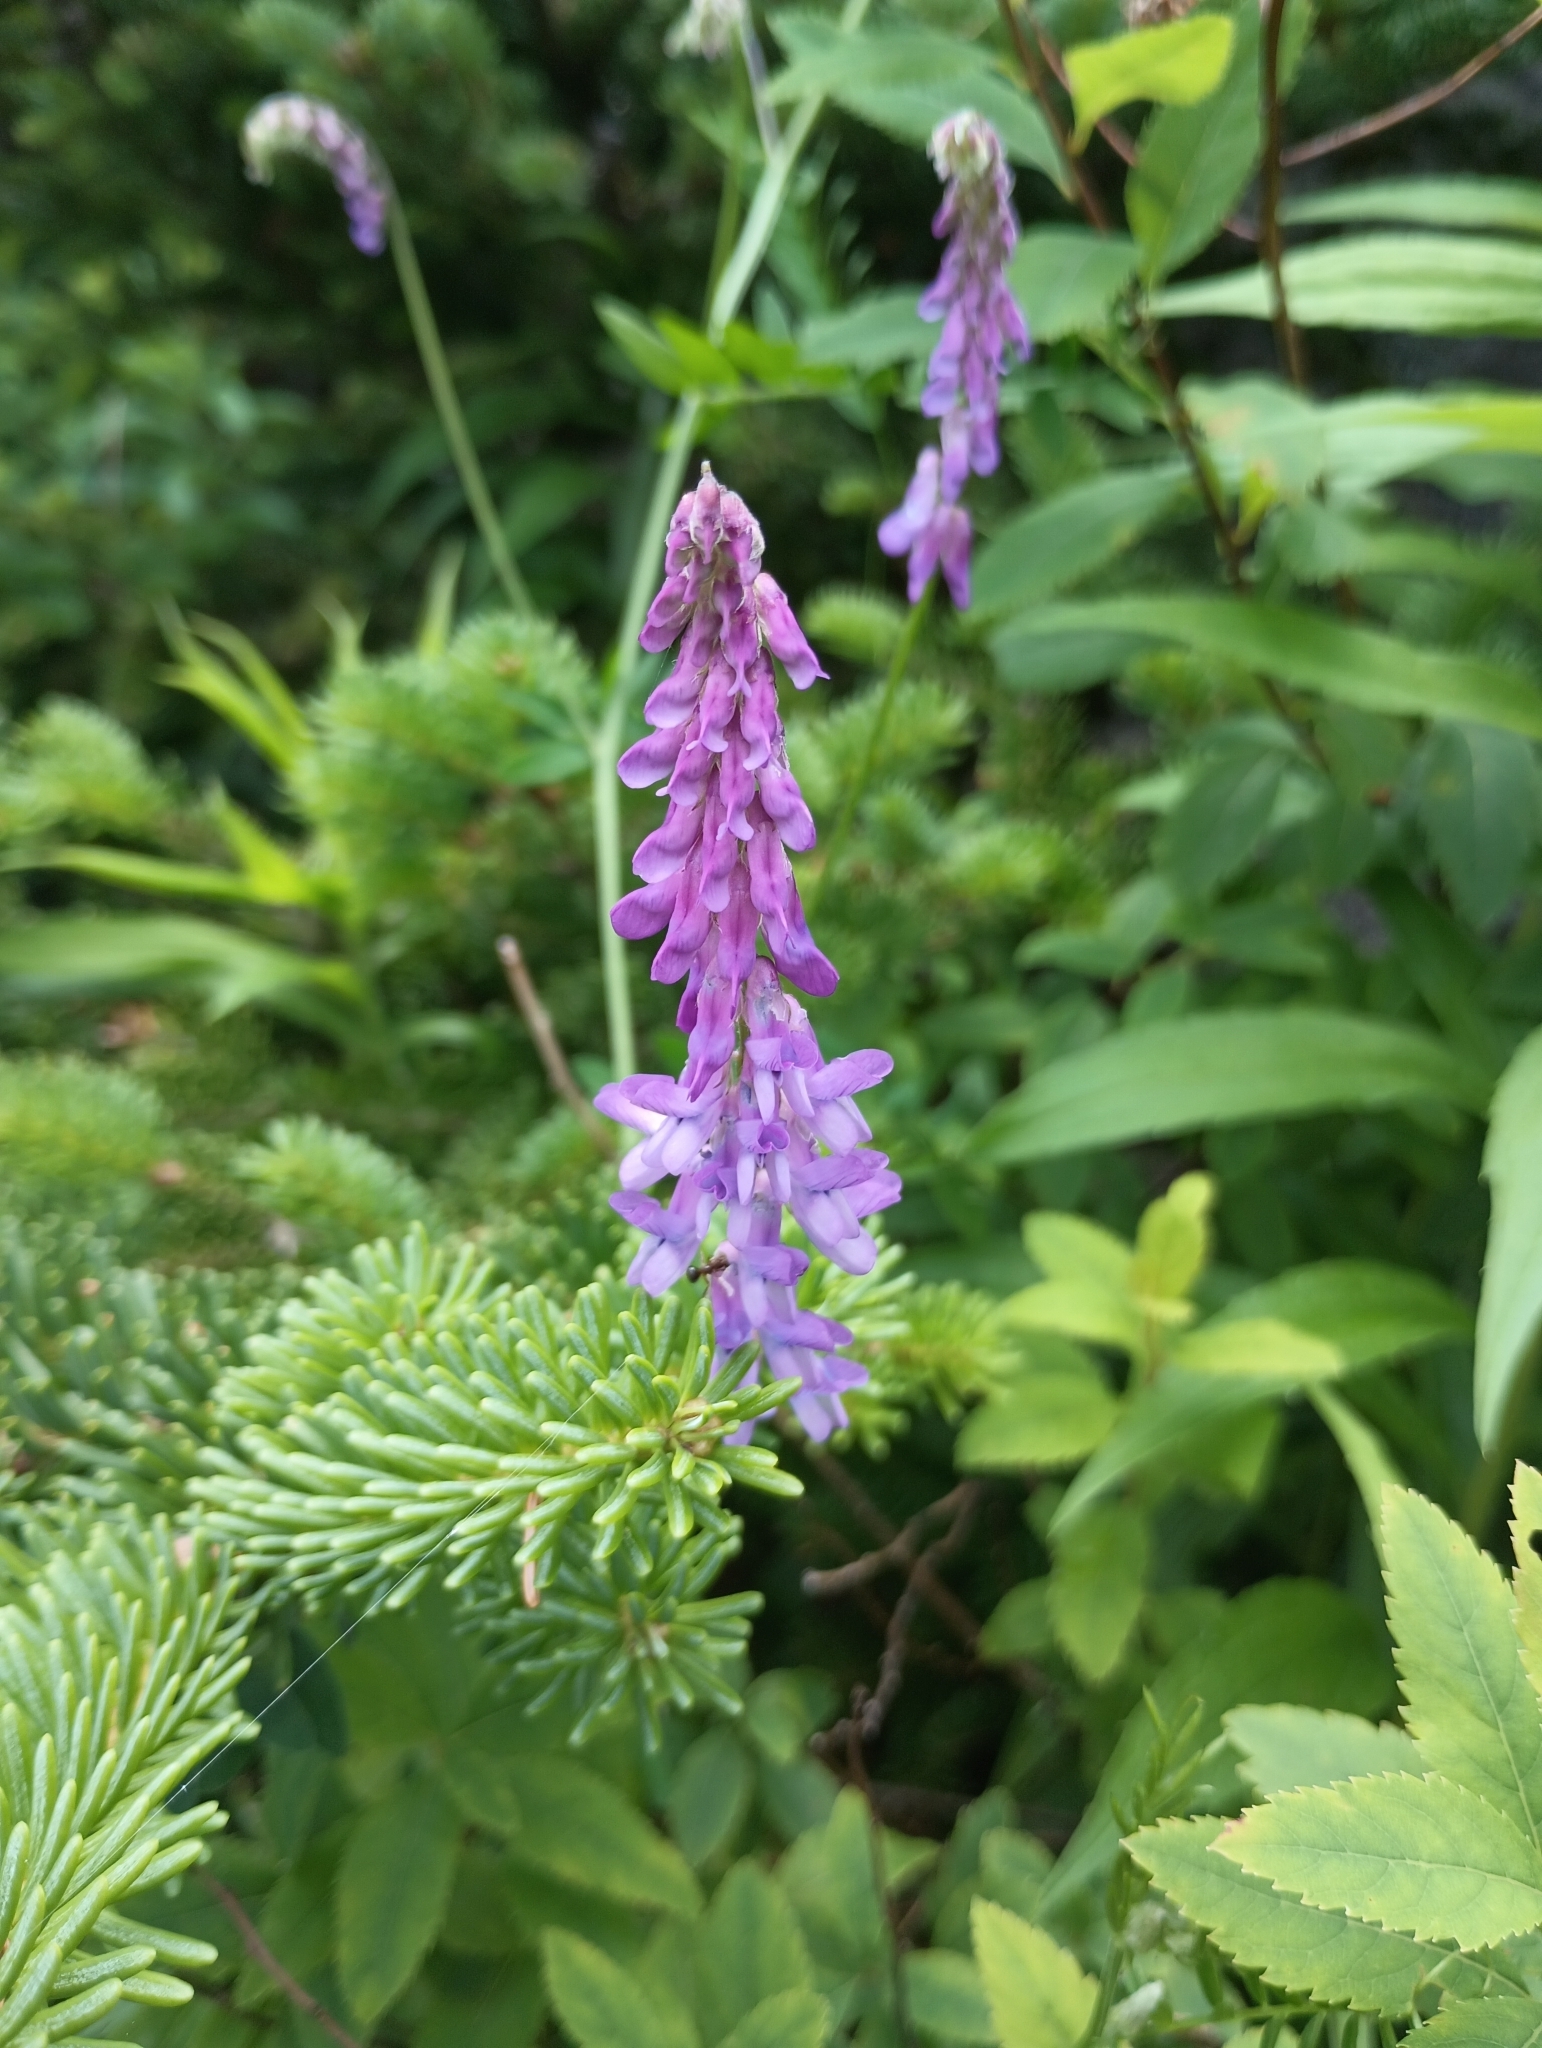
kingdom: Plantae
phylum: Tracheophyta
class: Magnoliopsida
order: Fabales
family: Fabaceae
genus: Vicia
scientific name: Vicia cracca
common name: Bird vetch
